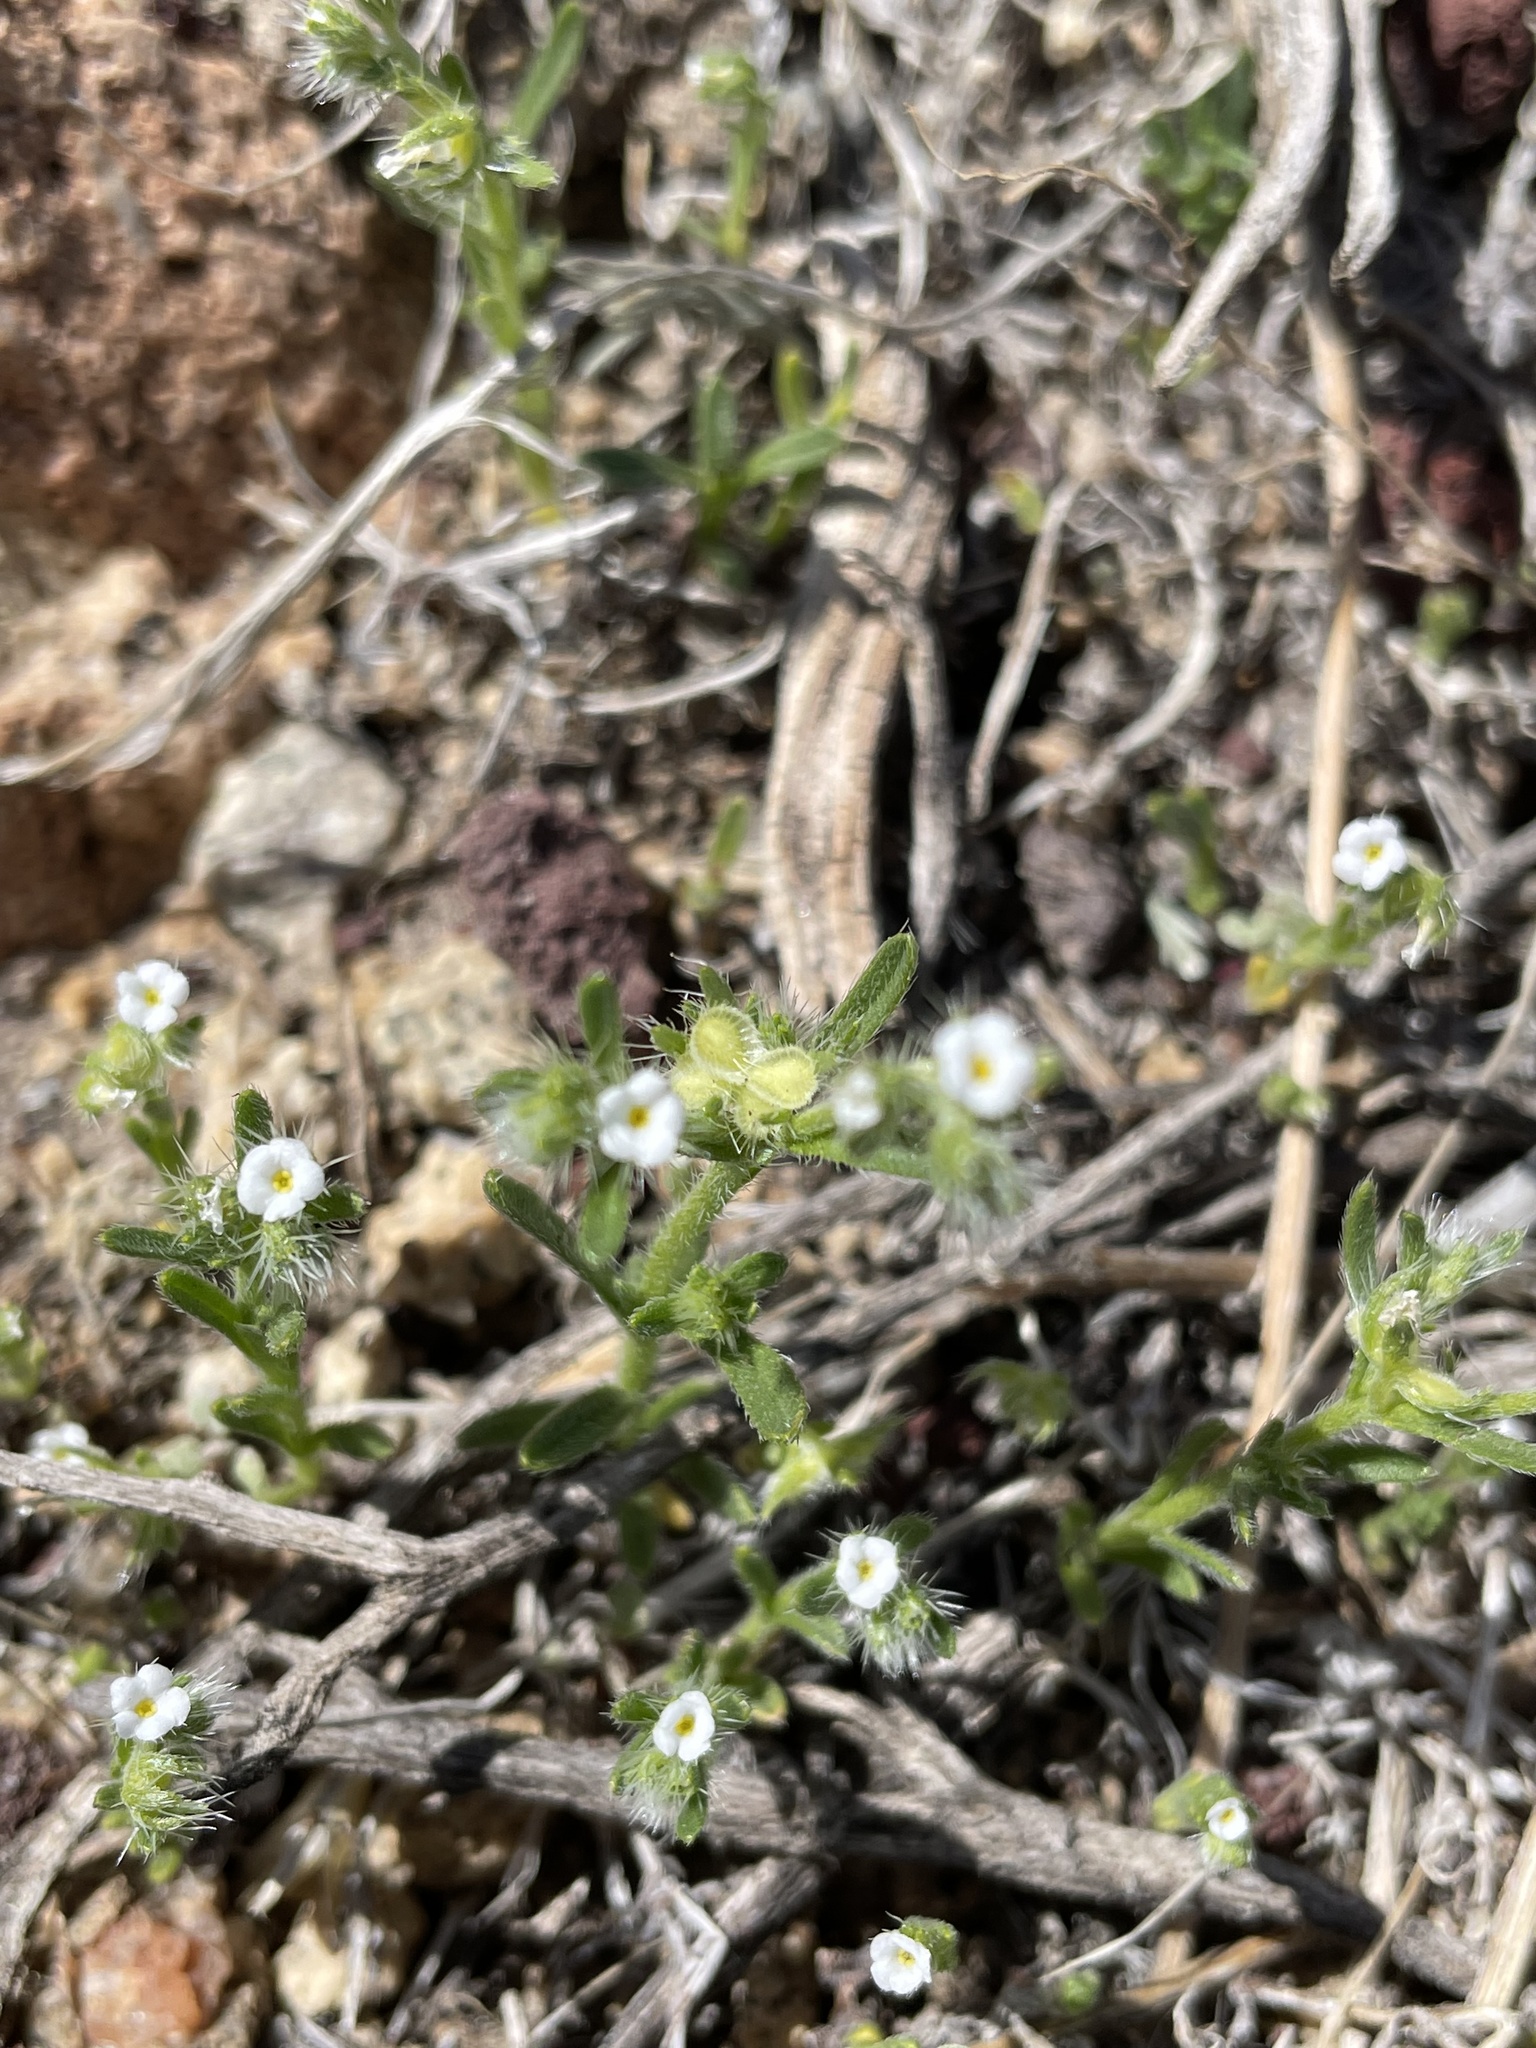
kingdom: Plantae
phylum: Tracheophyta
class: Magnoliopsida
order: Boraginales
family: Boraginaceae
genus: Pectocarya
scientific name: Pectocarya setosa
